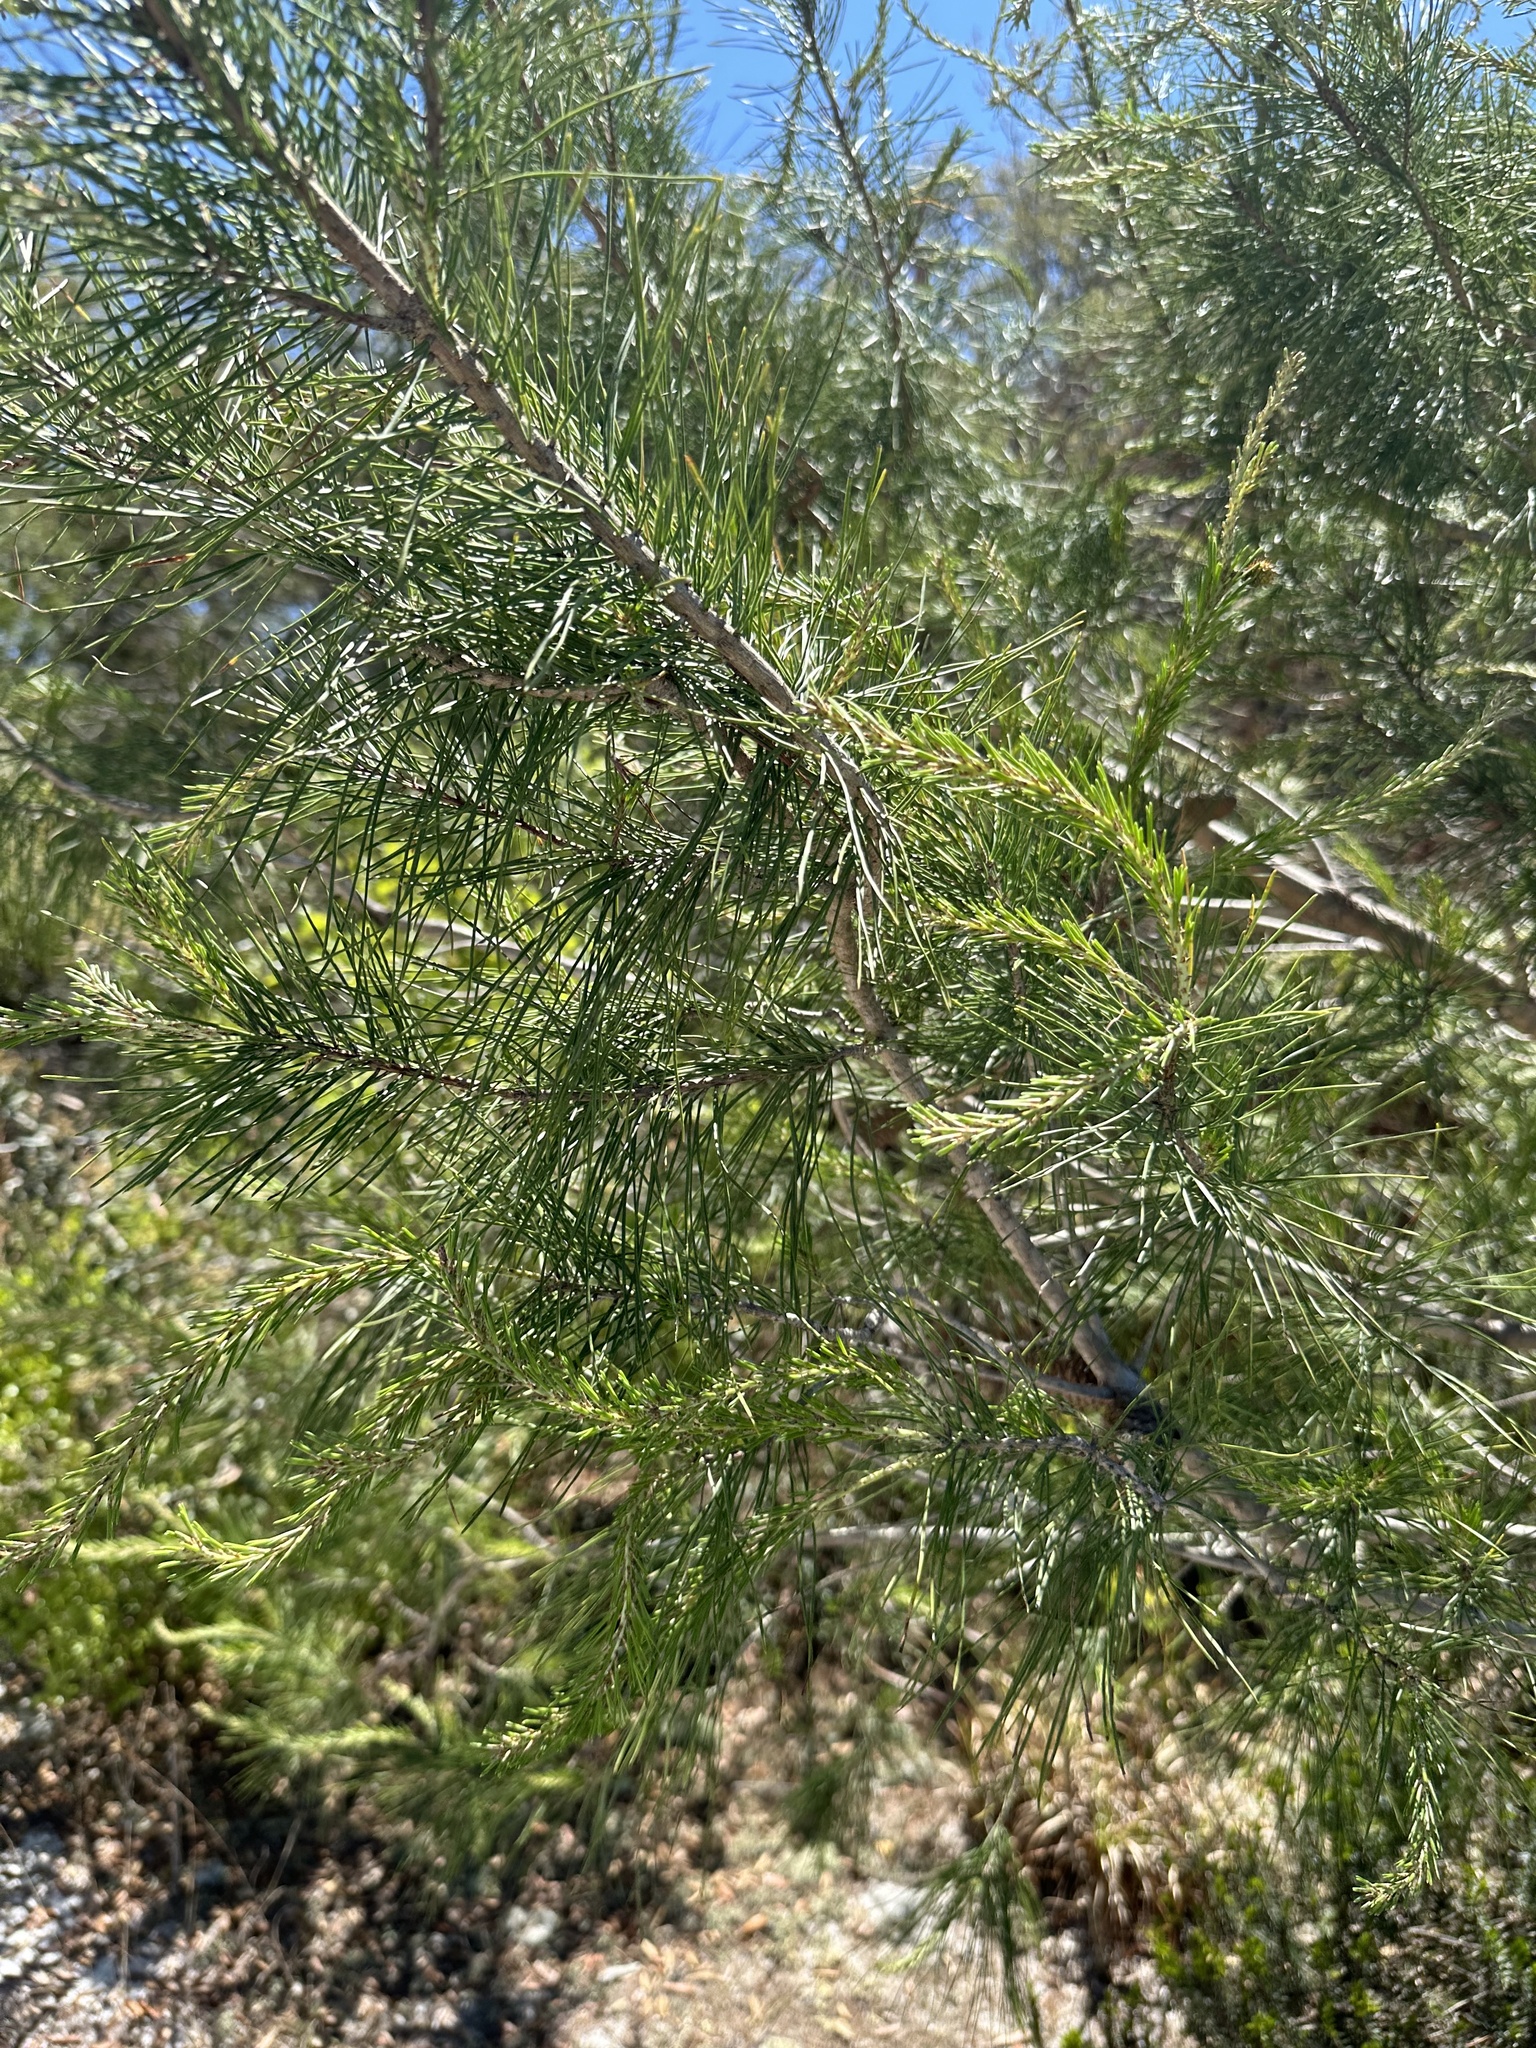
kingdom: Plantae
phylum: Tracheophyta
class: Pinopsida
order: Pinales
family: Pinaceae
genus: Pinus
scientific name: Pinus clausa
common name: Sand pine
